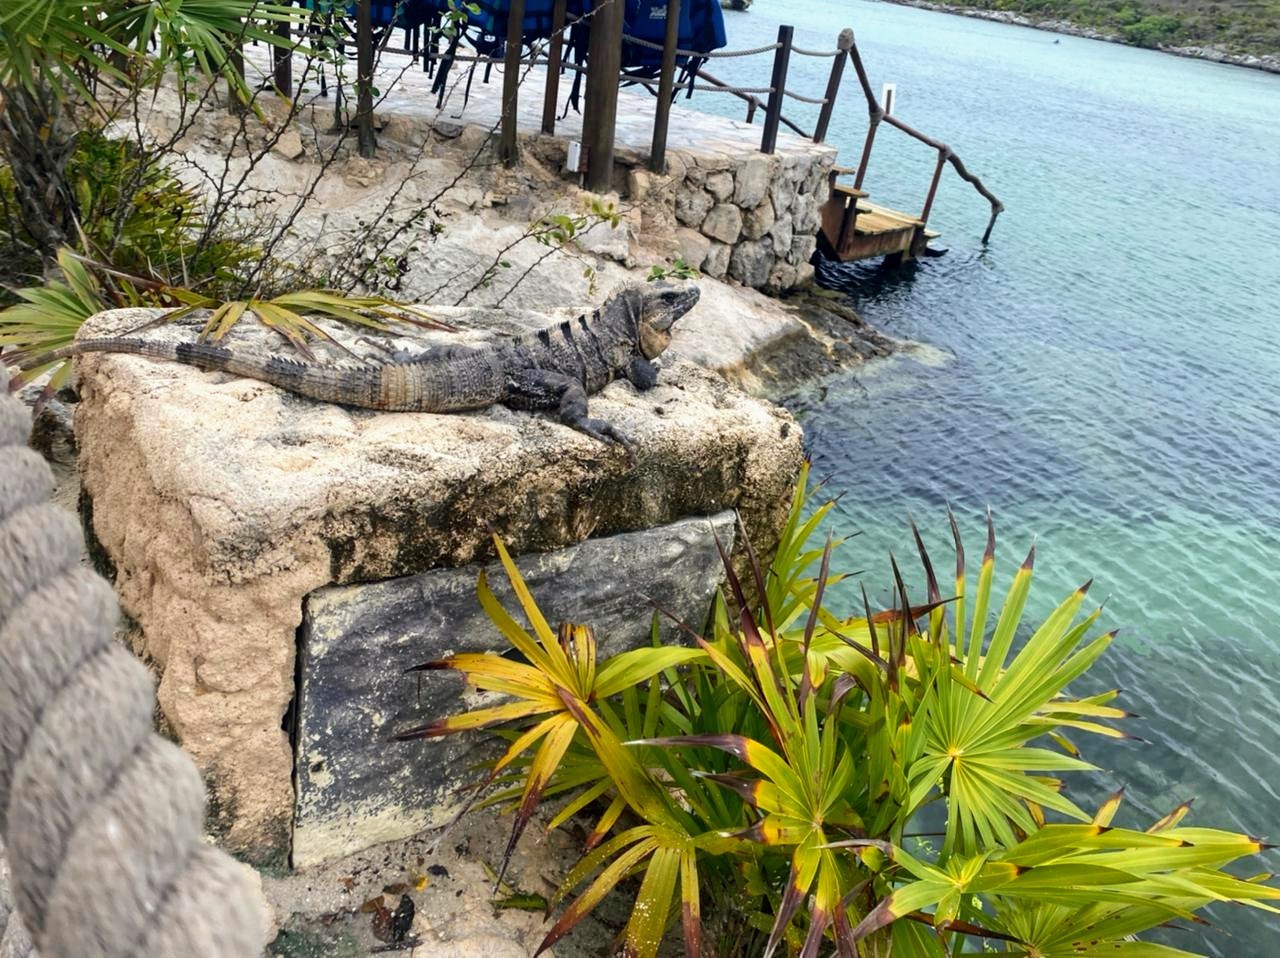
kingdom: Animalia
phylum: Chordata
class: Squamata
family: Iguanidae
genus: Ctenosaura
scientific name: Ctenosaura similis
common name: Black spiny-tailed iguana
